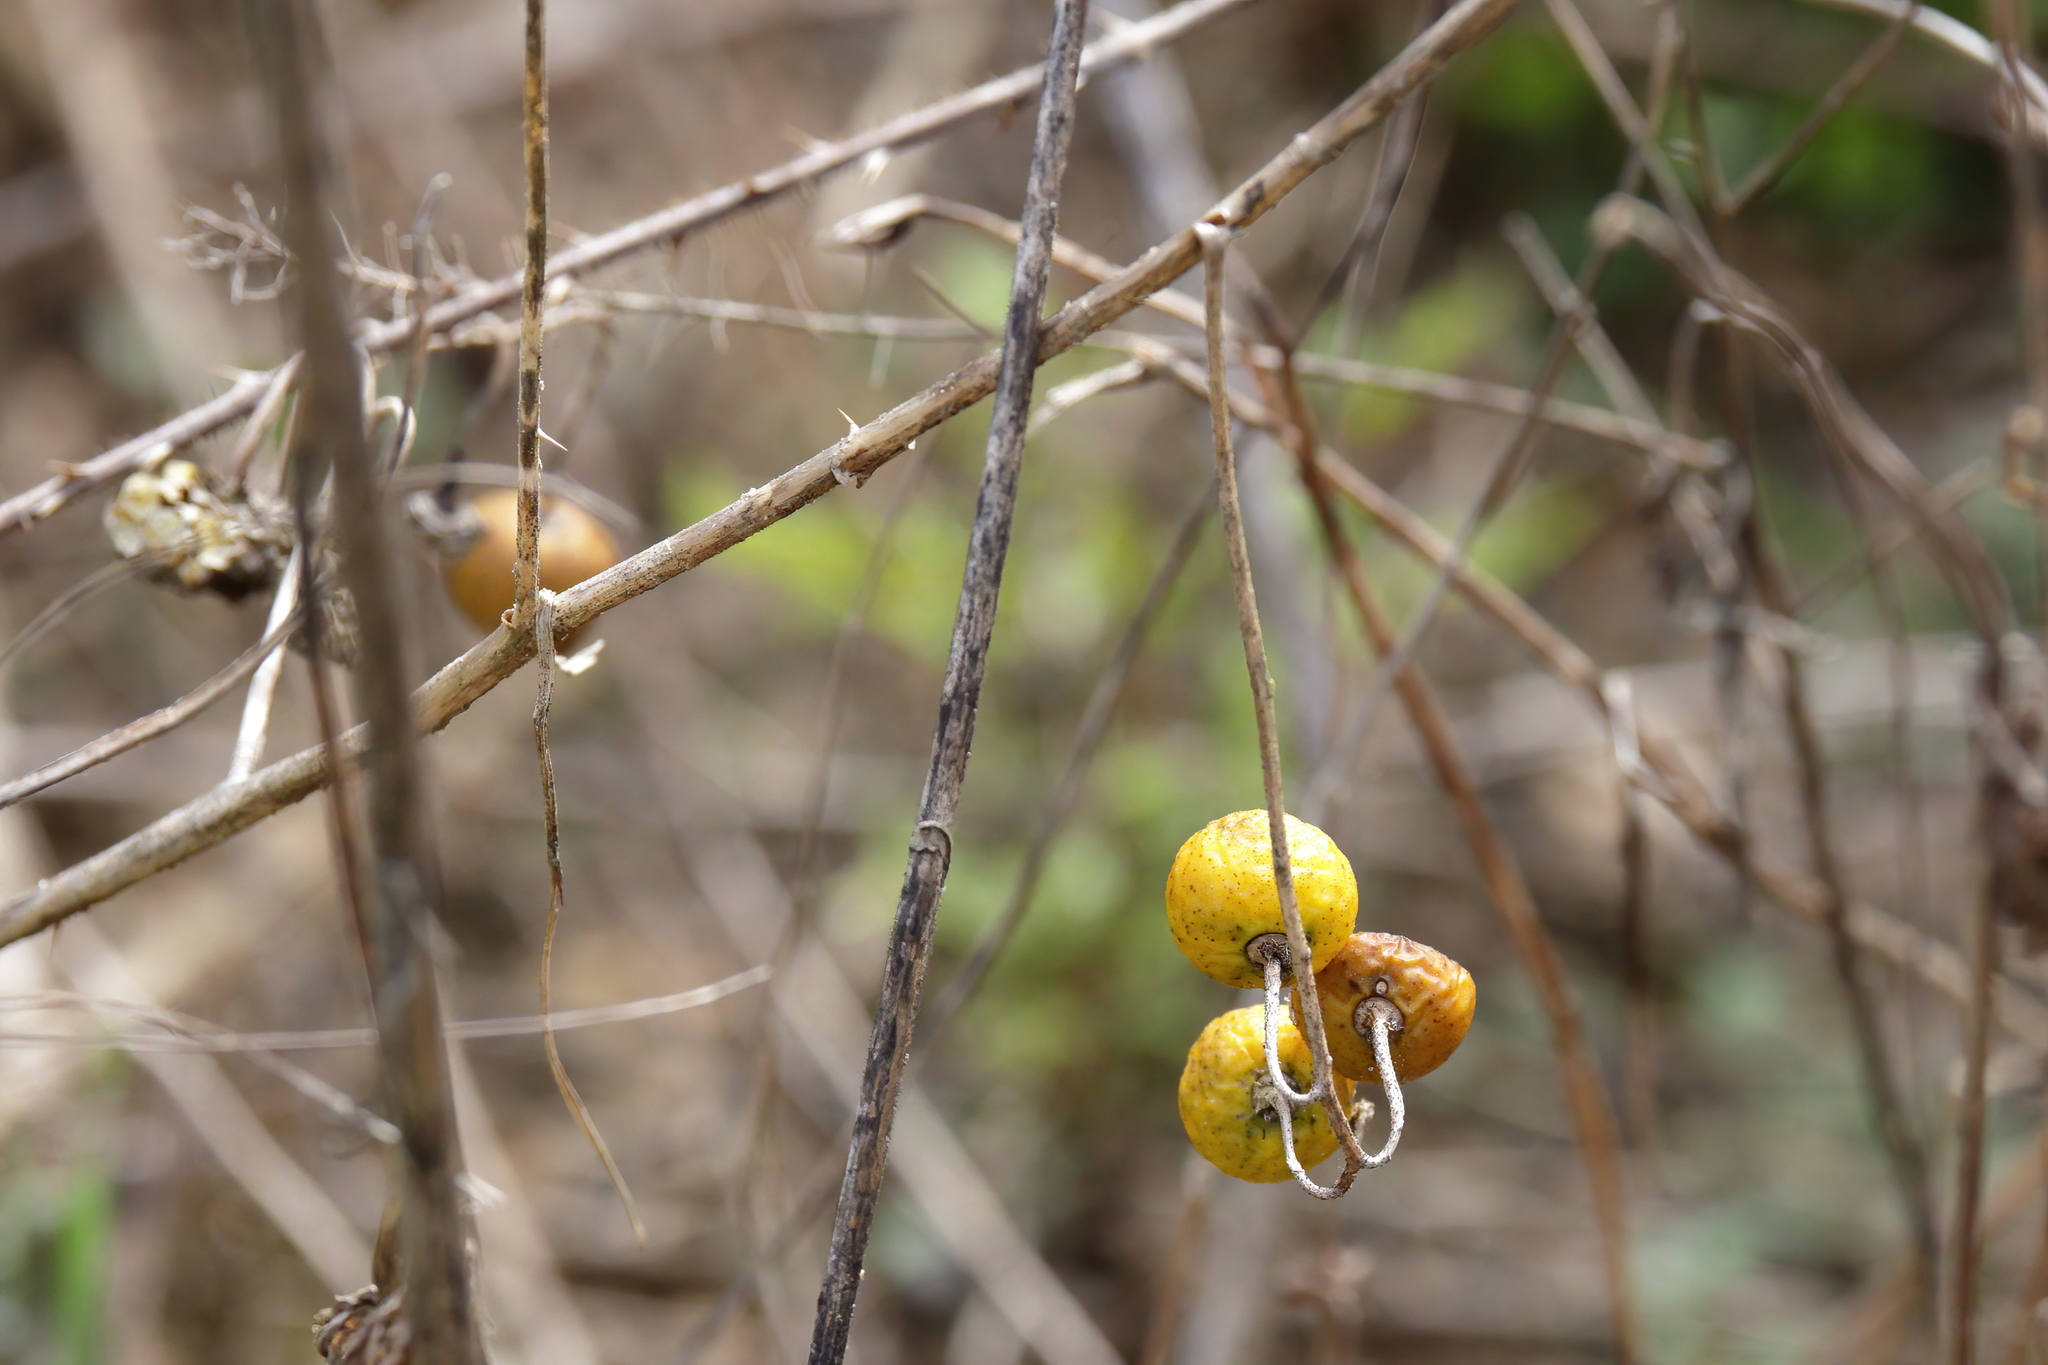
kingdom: Plantae
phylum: Tracheophyta
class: Magnoliopsida
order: Solanales
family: Solanaceae
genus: Solanum
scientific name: Solanum carolinense
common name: Horse-nettle
